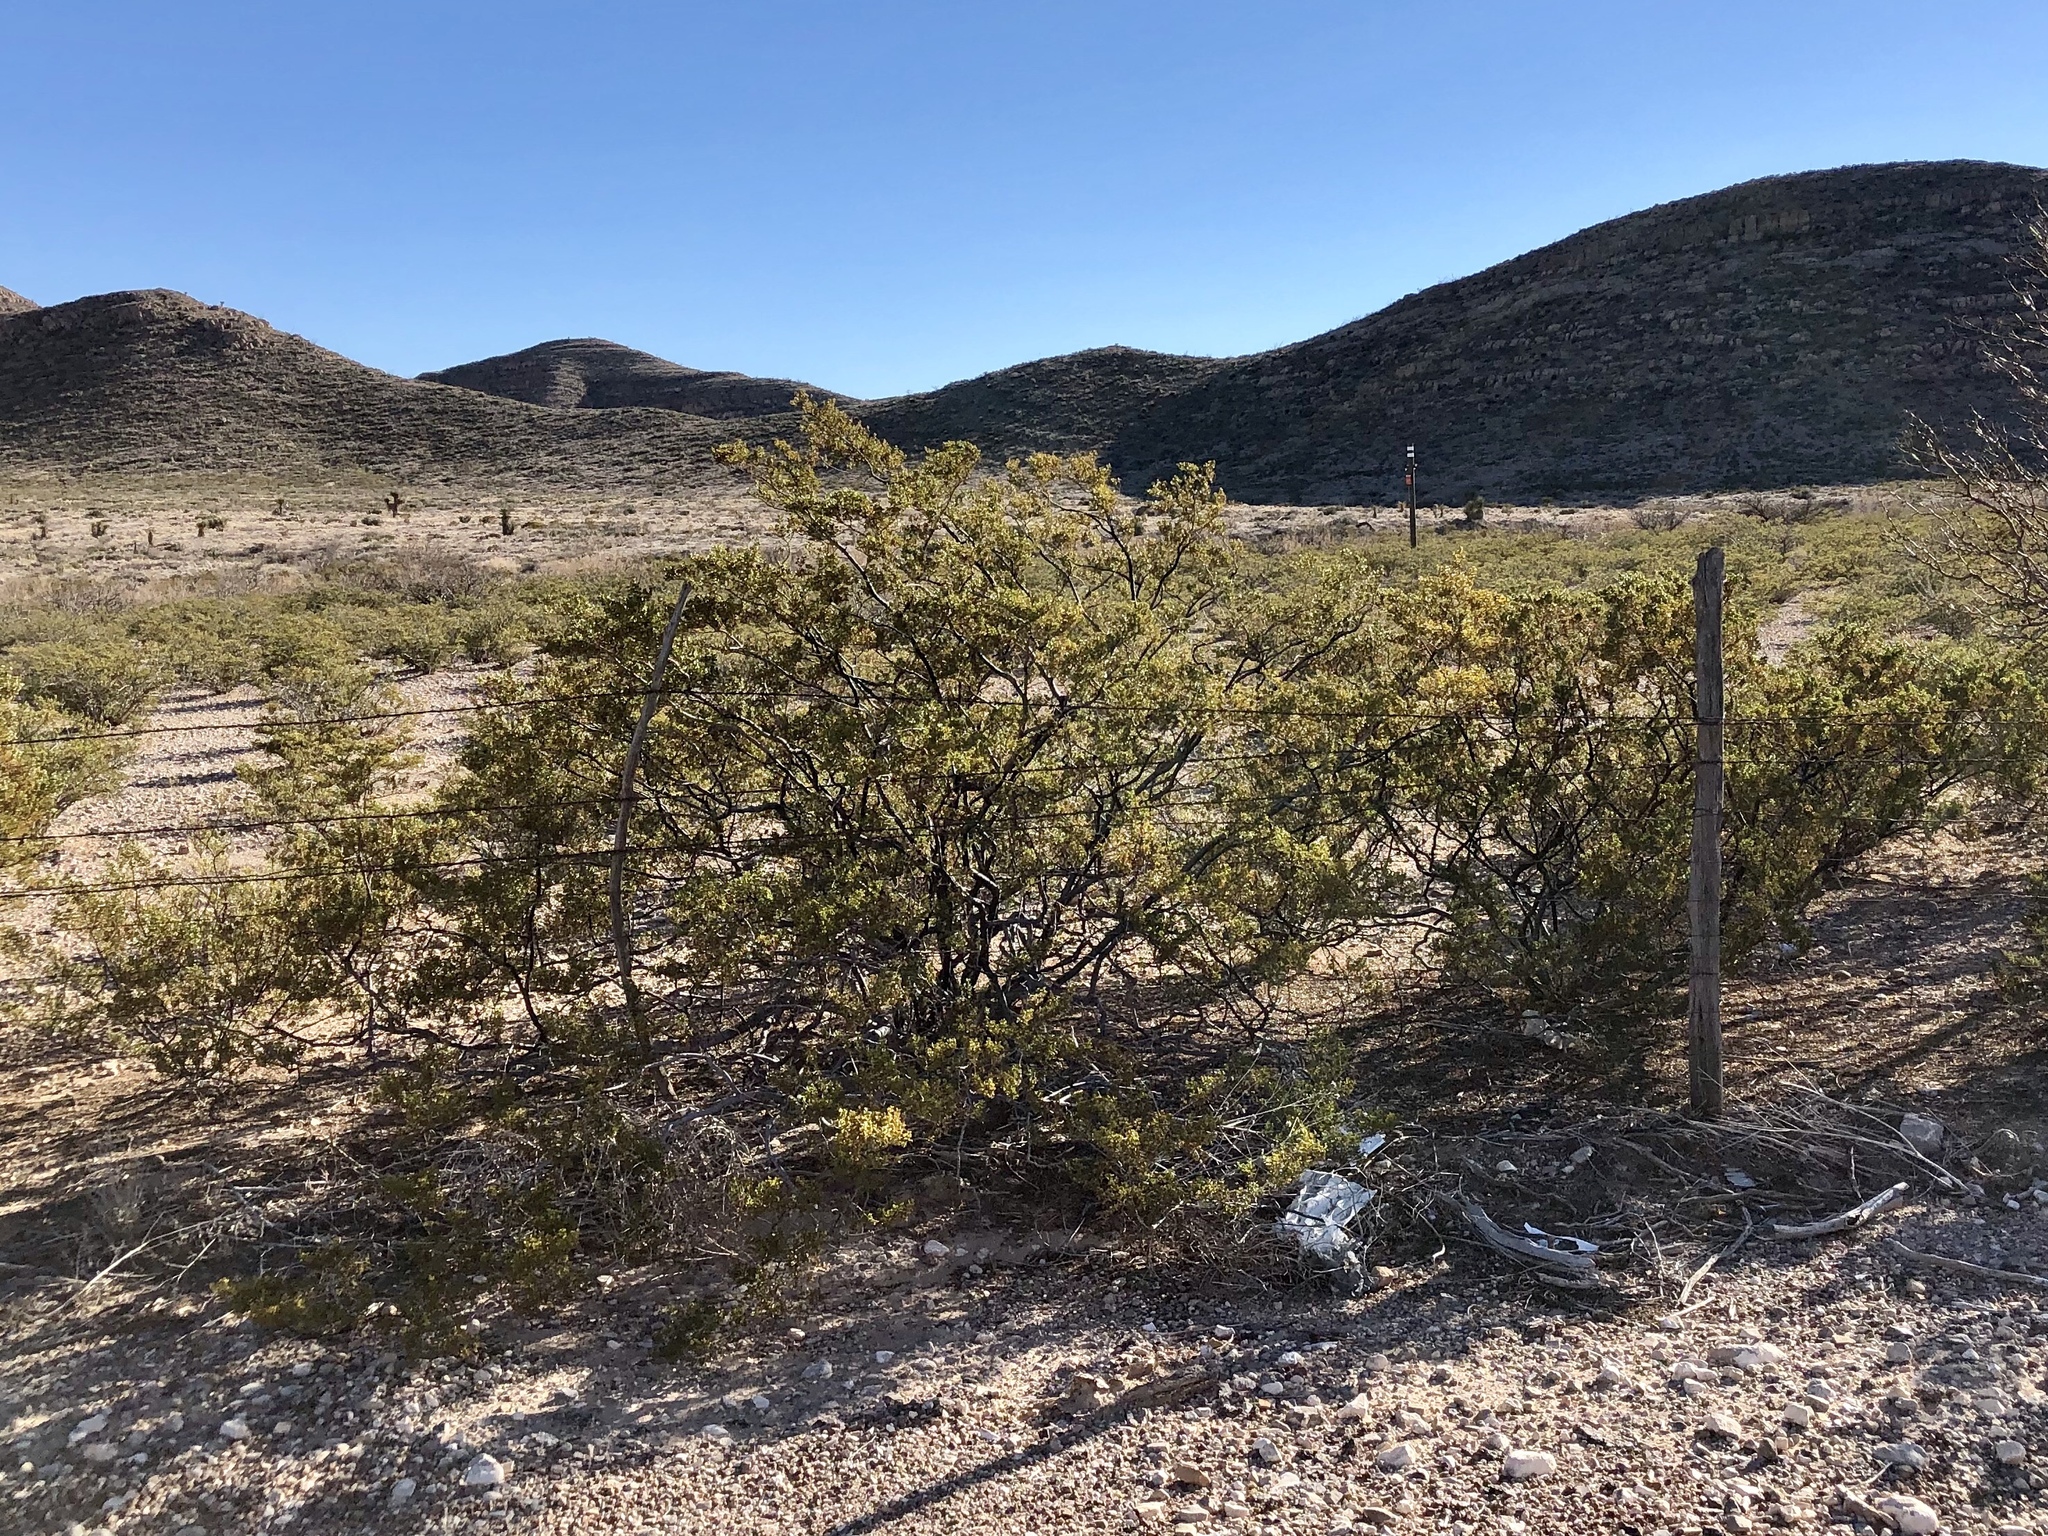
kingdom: Plantae
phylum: Tracheophyta
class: Magnoliopsida
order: Zygophyllales
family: Zygophyllaceae
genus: Larrea
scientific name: Larrea tridentata
